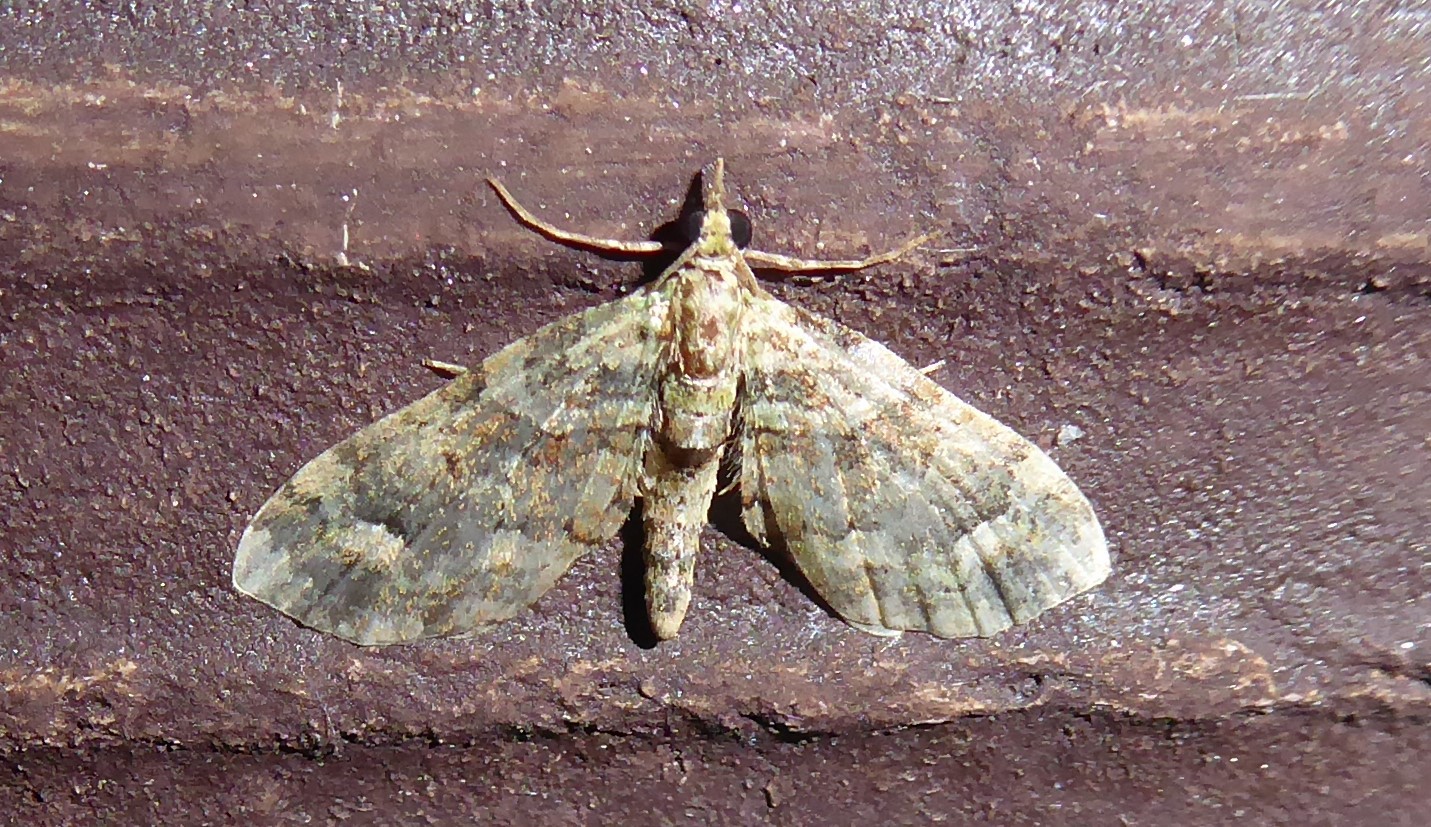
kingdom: Animalia
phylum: Arthropoda
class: Insecta
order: Lepidoptera
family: Geometridae
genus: Idaea
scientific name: Idaea mutanda
